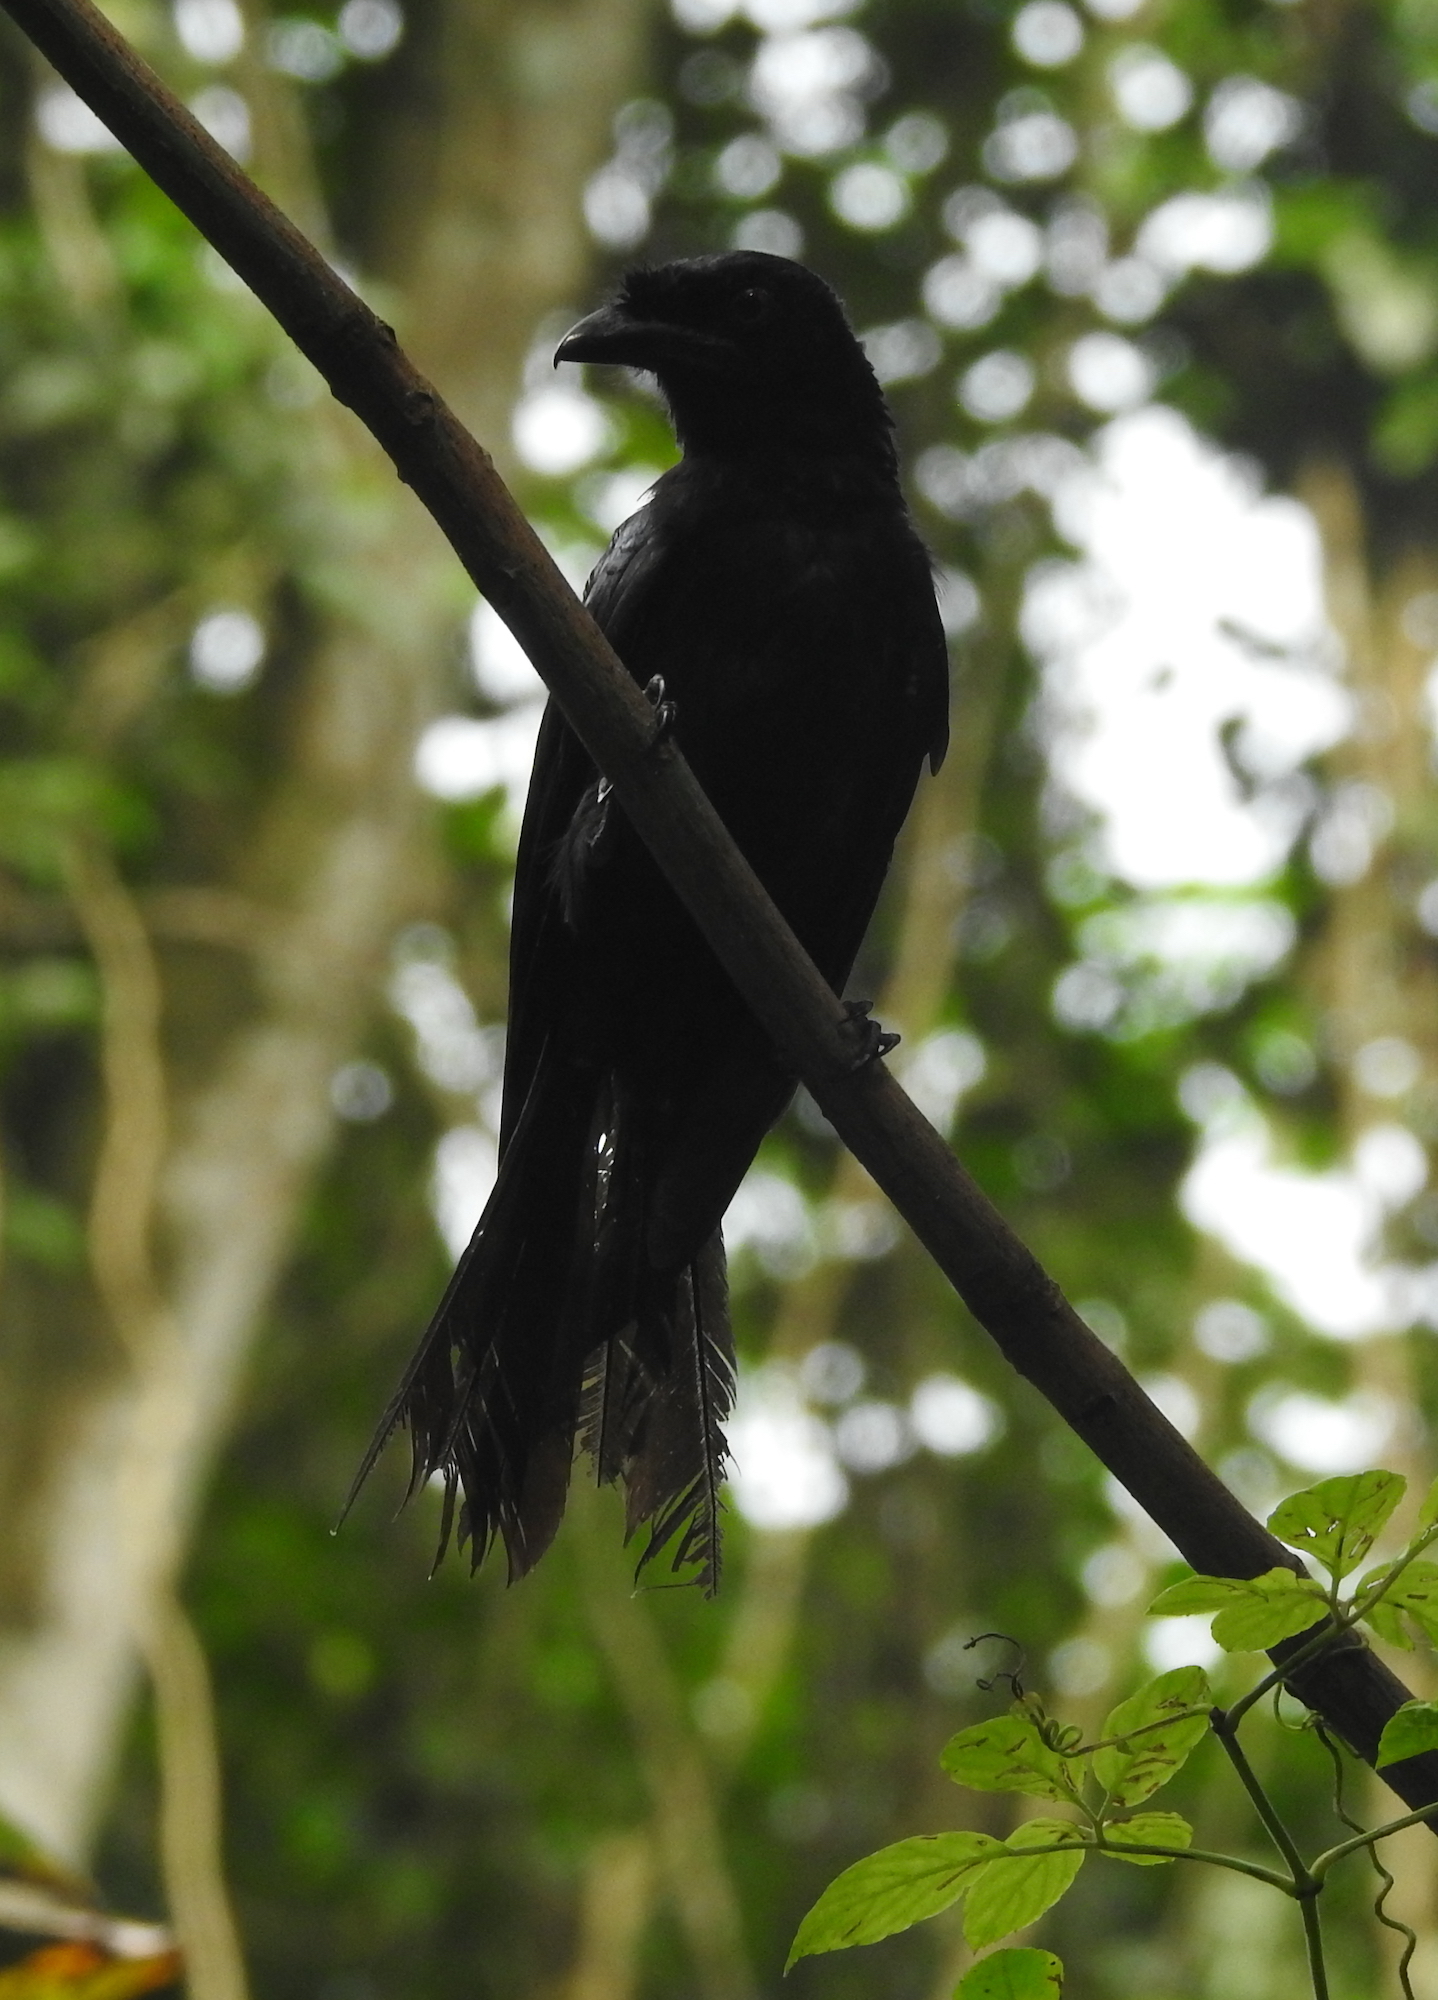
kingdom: Animalia
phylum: Chordata
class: Aves
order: Passeriformes
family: Dicruridae
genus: Dicrurus
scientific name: Dicrurus paradiseus
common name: Greater racket-tailed drongo
